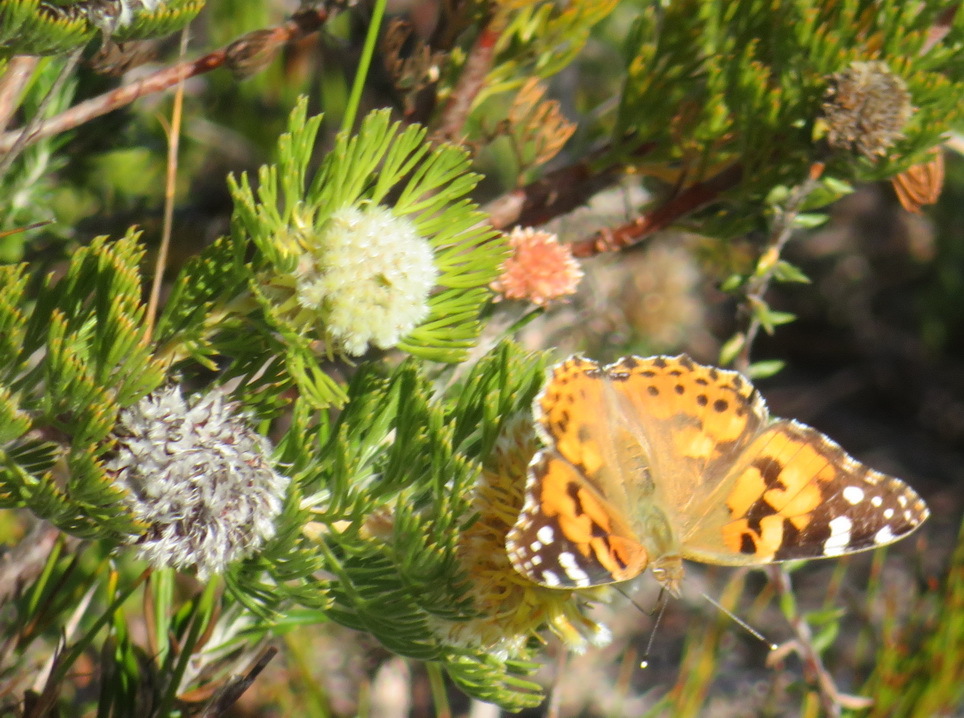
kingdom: Animalia
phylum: Arthropoda
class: Insecta
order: Lepidoptera
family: Nymphalidae
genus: Vanessa
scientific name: Vanessa cardui
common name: Painted lady
